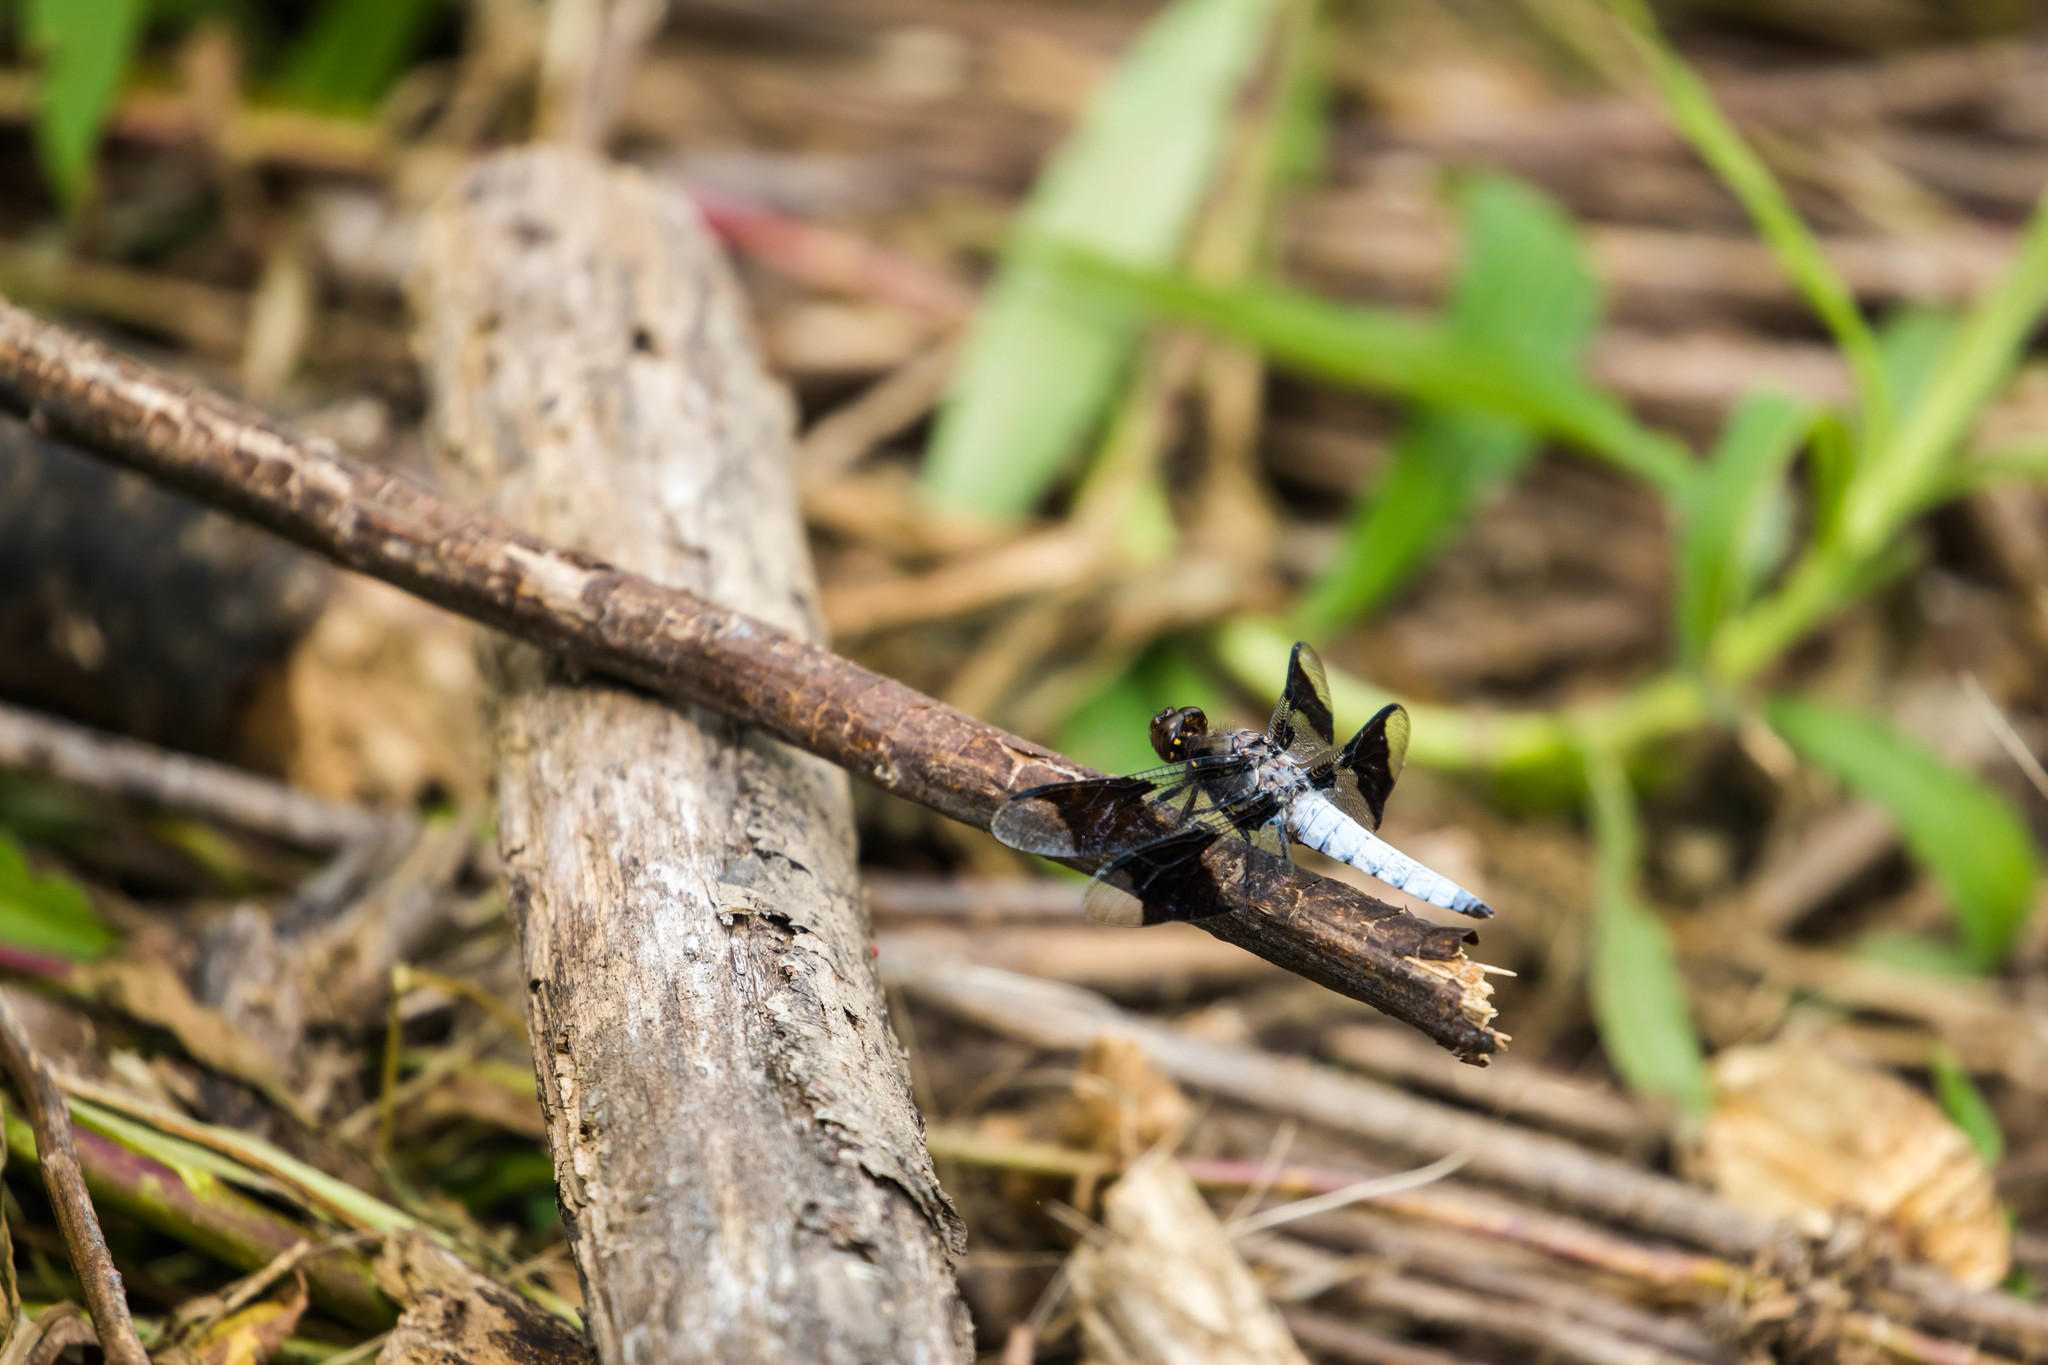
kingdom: Animalia
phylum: Arthropoda
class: Insecta
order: Odonata
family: Libellulidae
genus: Plathemis
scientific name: Plathemis lydia
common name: Common whitetail
